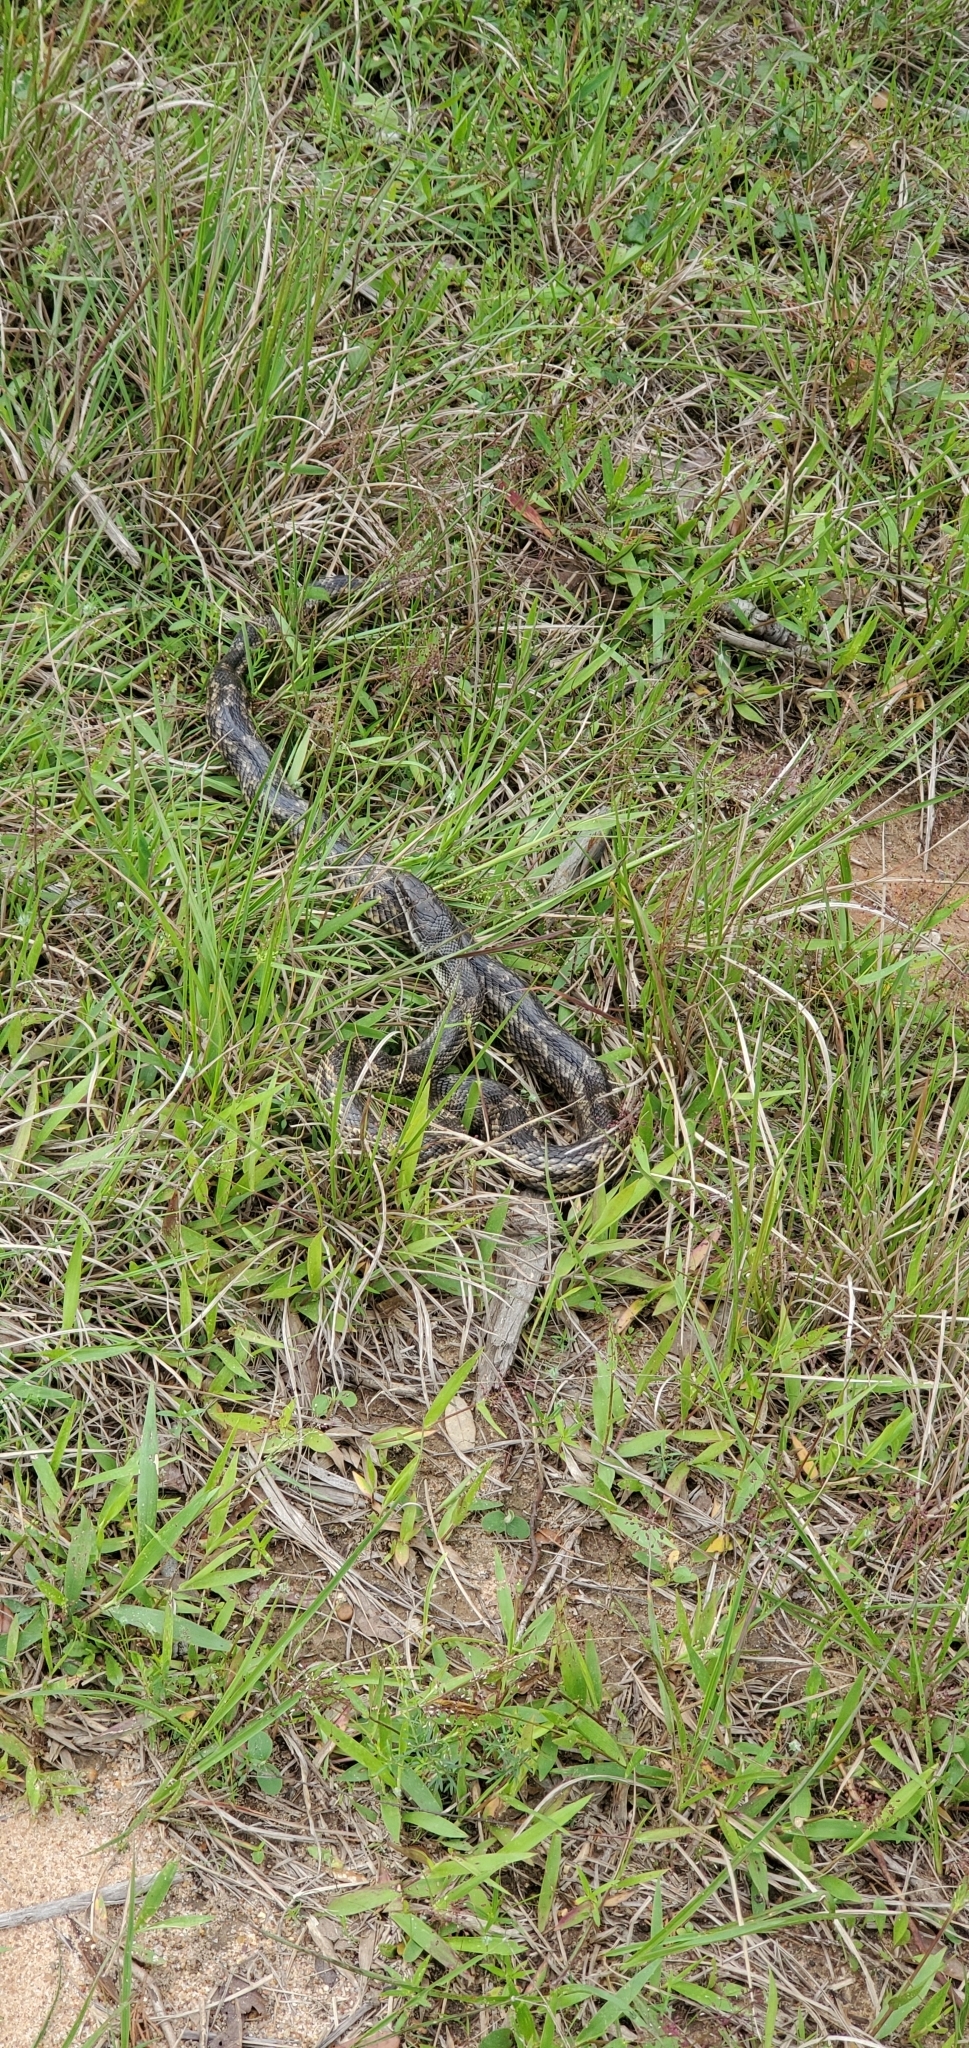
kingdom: Animalia
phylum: Chordata
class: Squamata
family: Colubridae
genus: Pantherophis
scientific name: Pantherophis obsoletus
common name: Black rat snake
